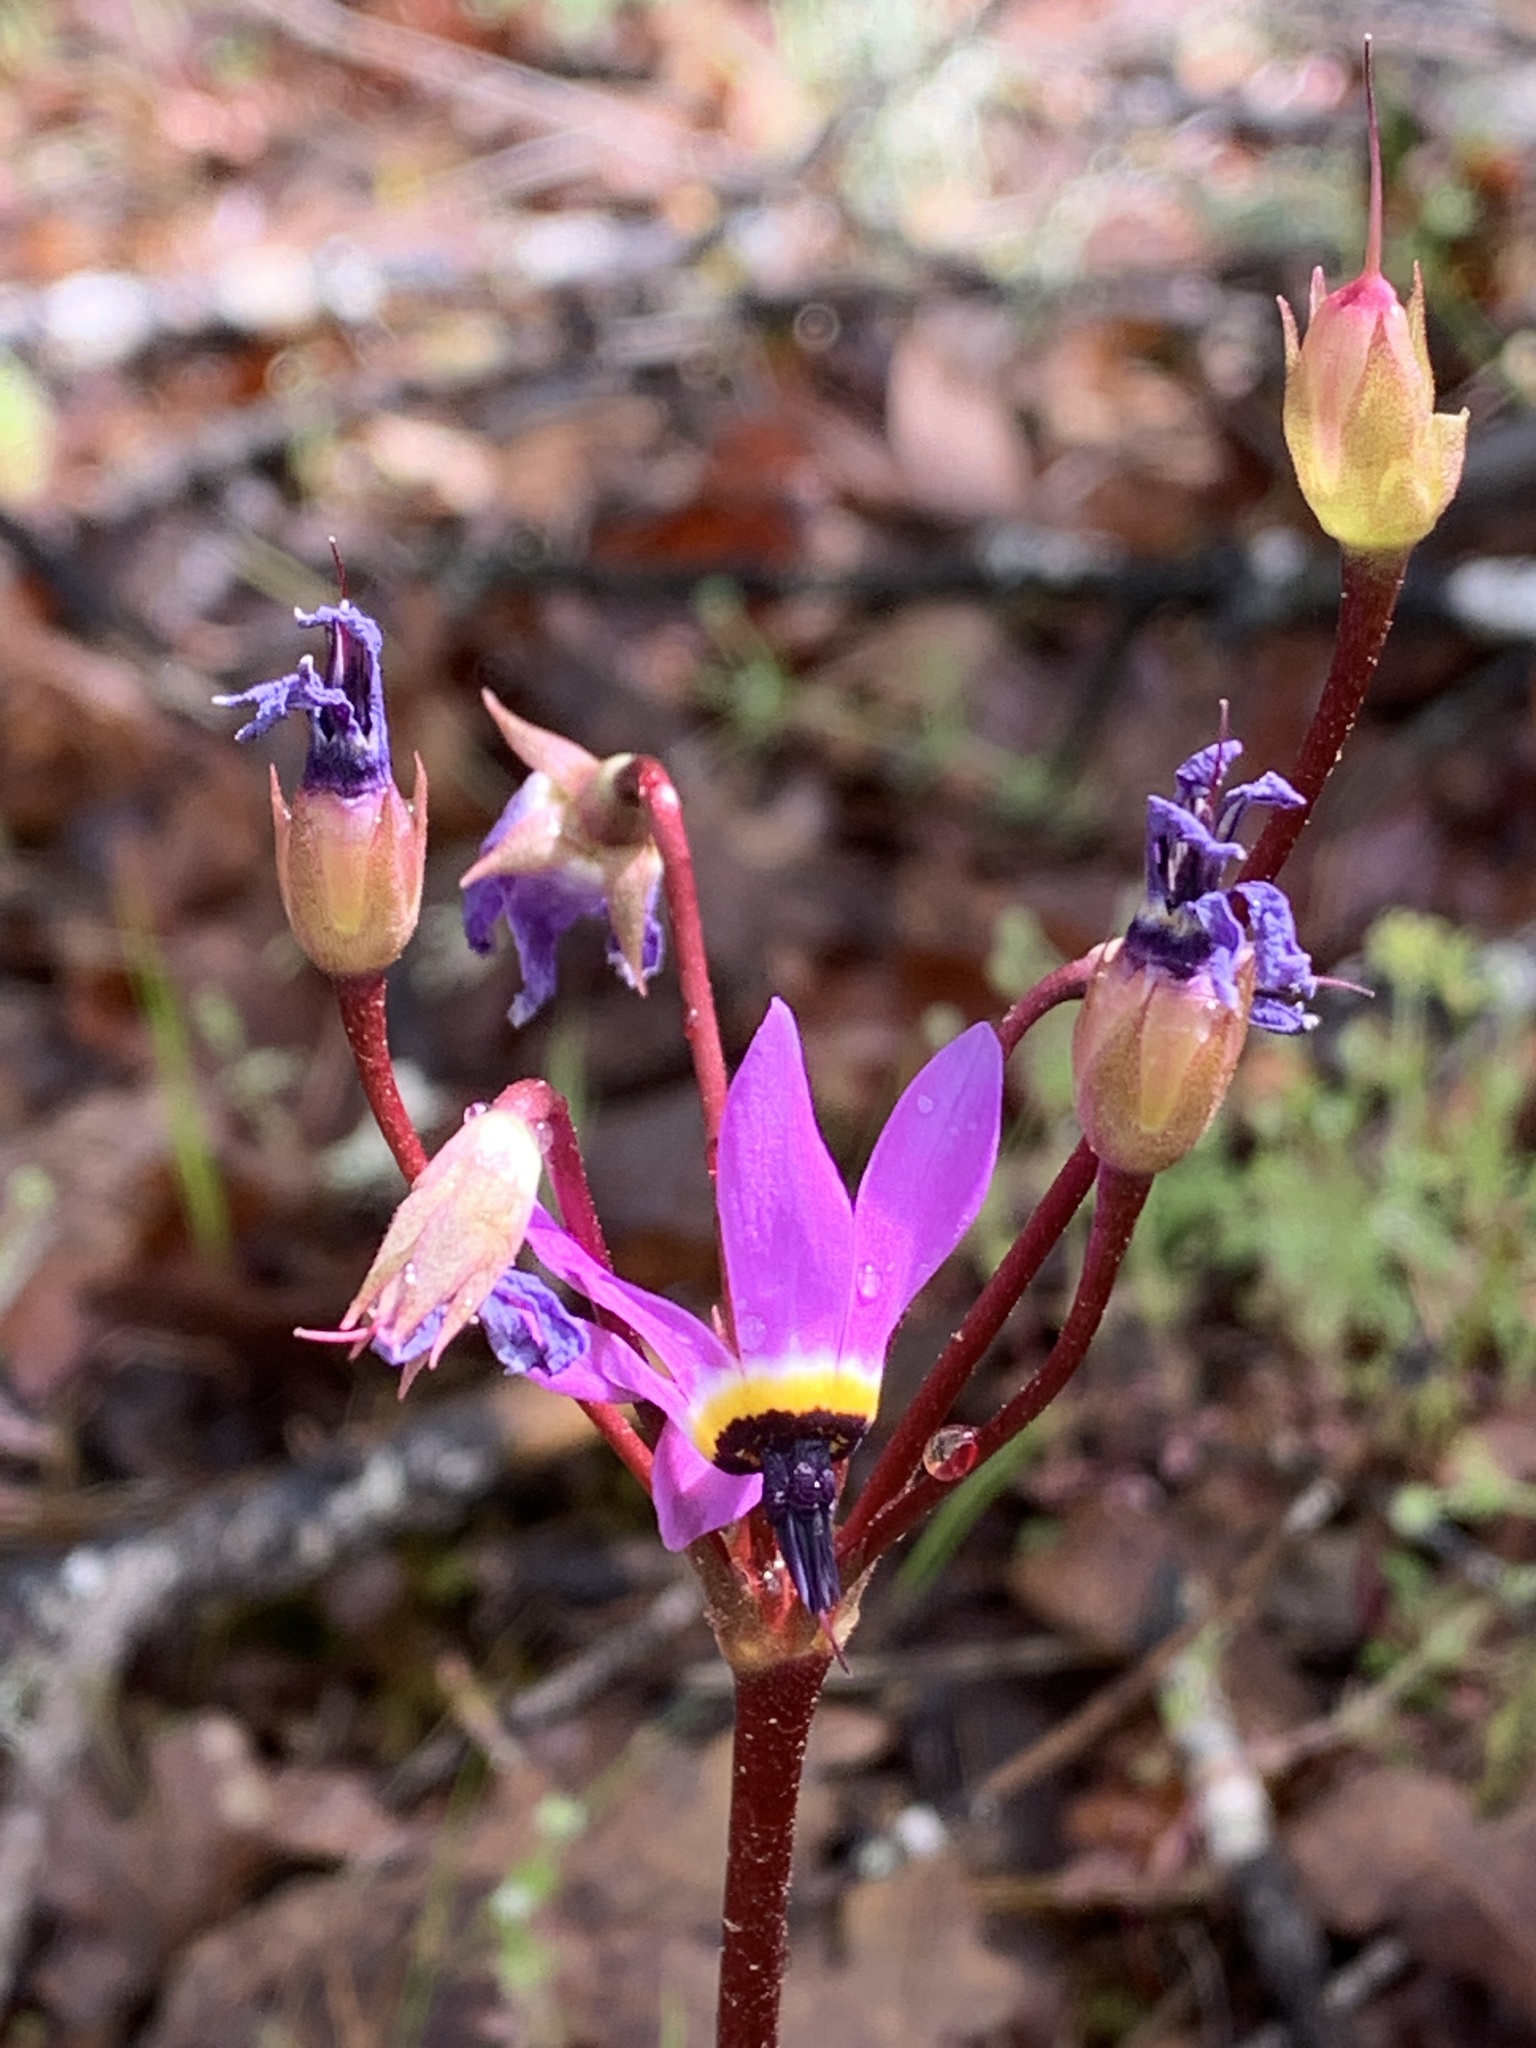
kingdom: Plantae
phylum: Tracheophyta
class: Magnoliopsida
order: Ericales
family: Primulaceae
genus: Dodecatheon
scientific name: Dodecatheon hendersonii
